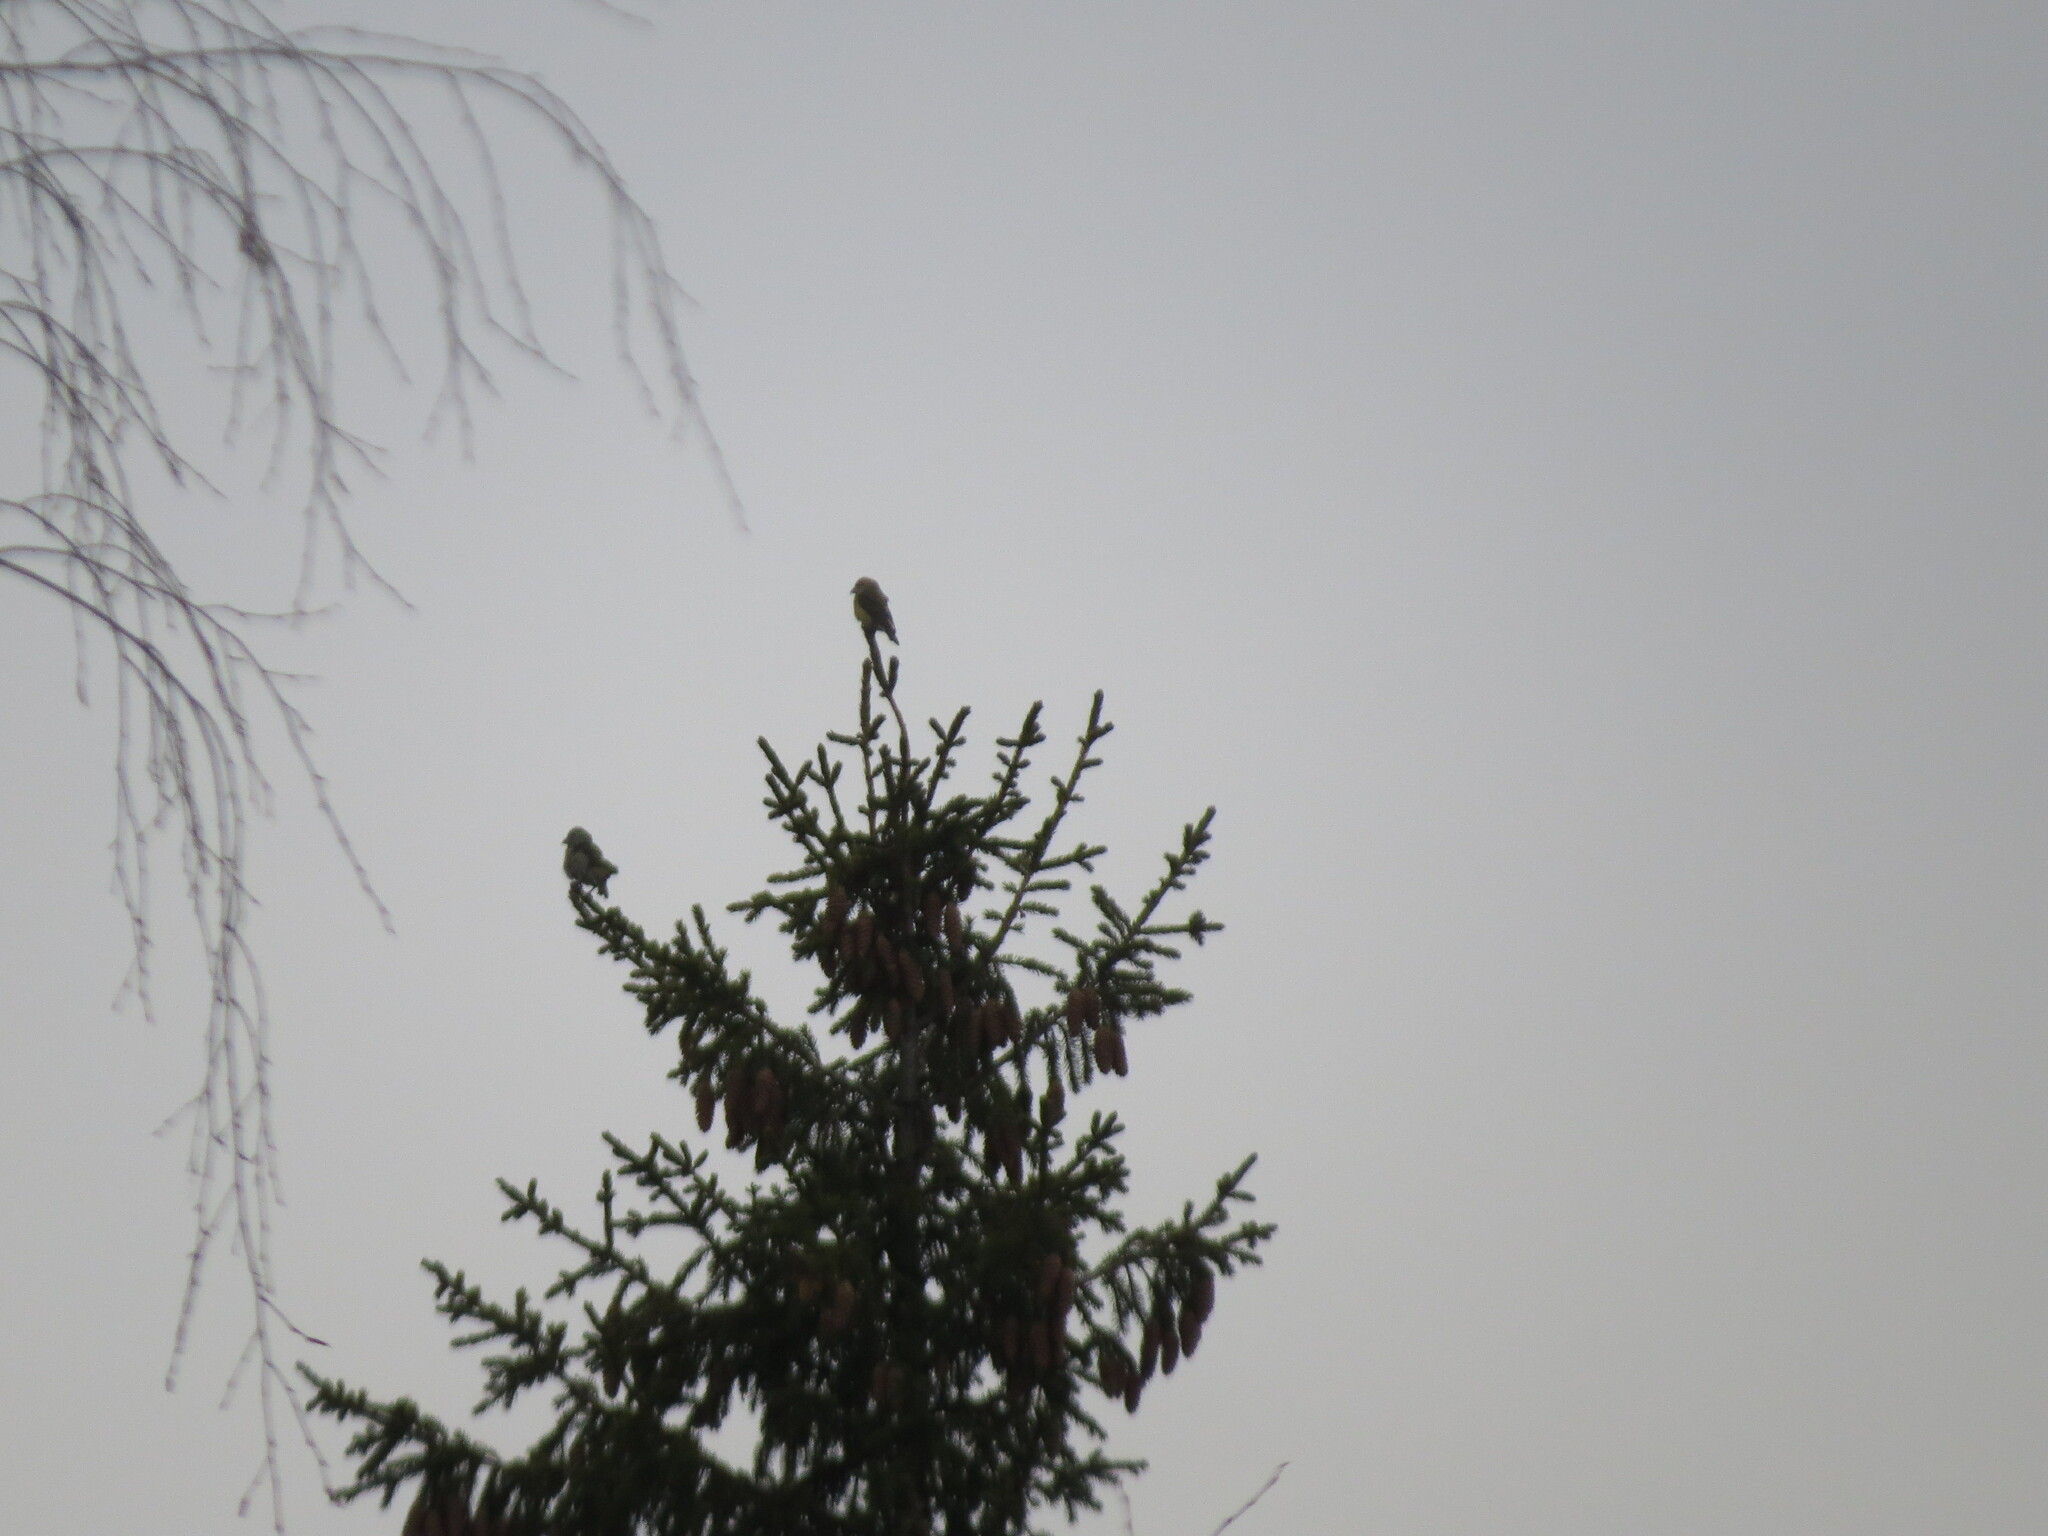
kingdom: Animalia
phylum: Chordata
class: Aves
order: Passeriformes
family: Fringillidae
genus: Loxia
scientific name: Loxia curvirostra
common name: Red crossbill
